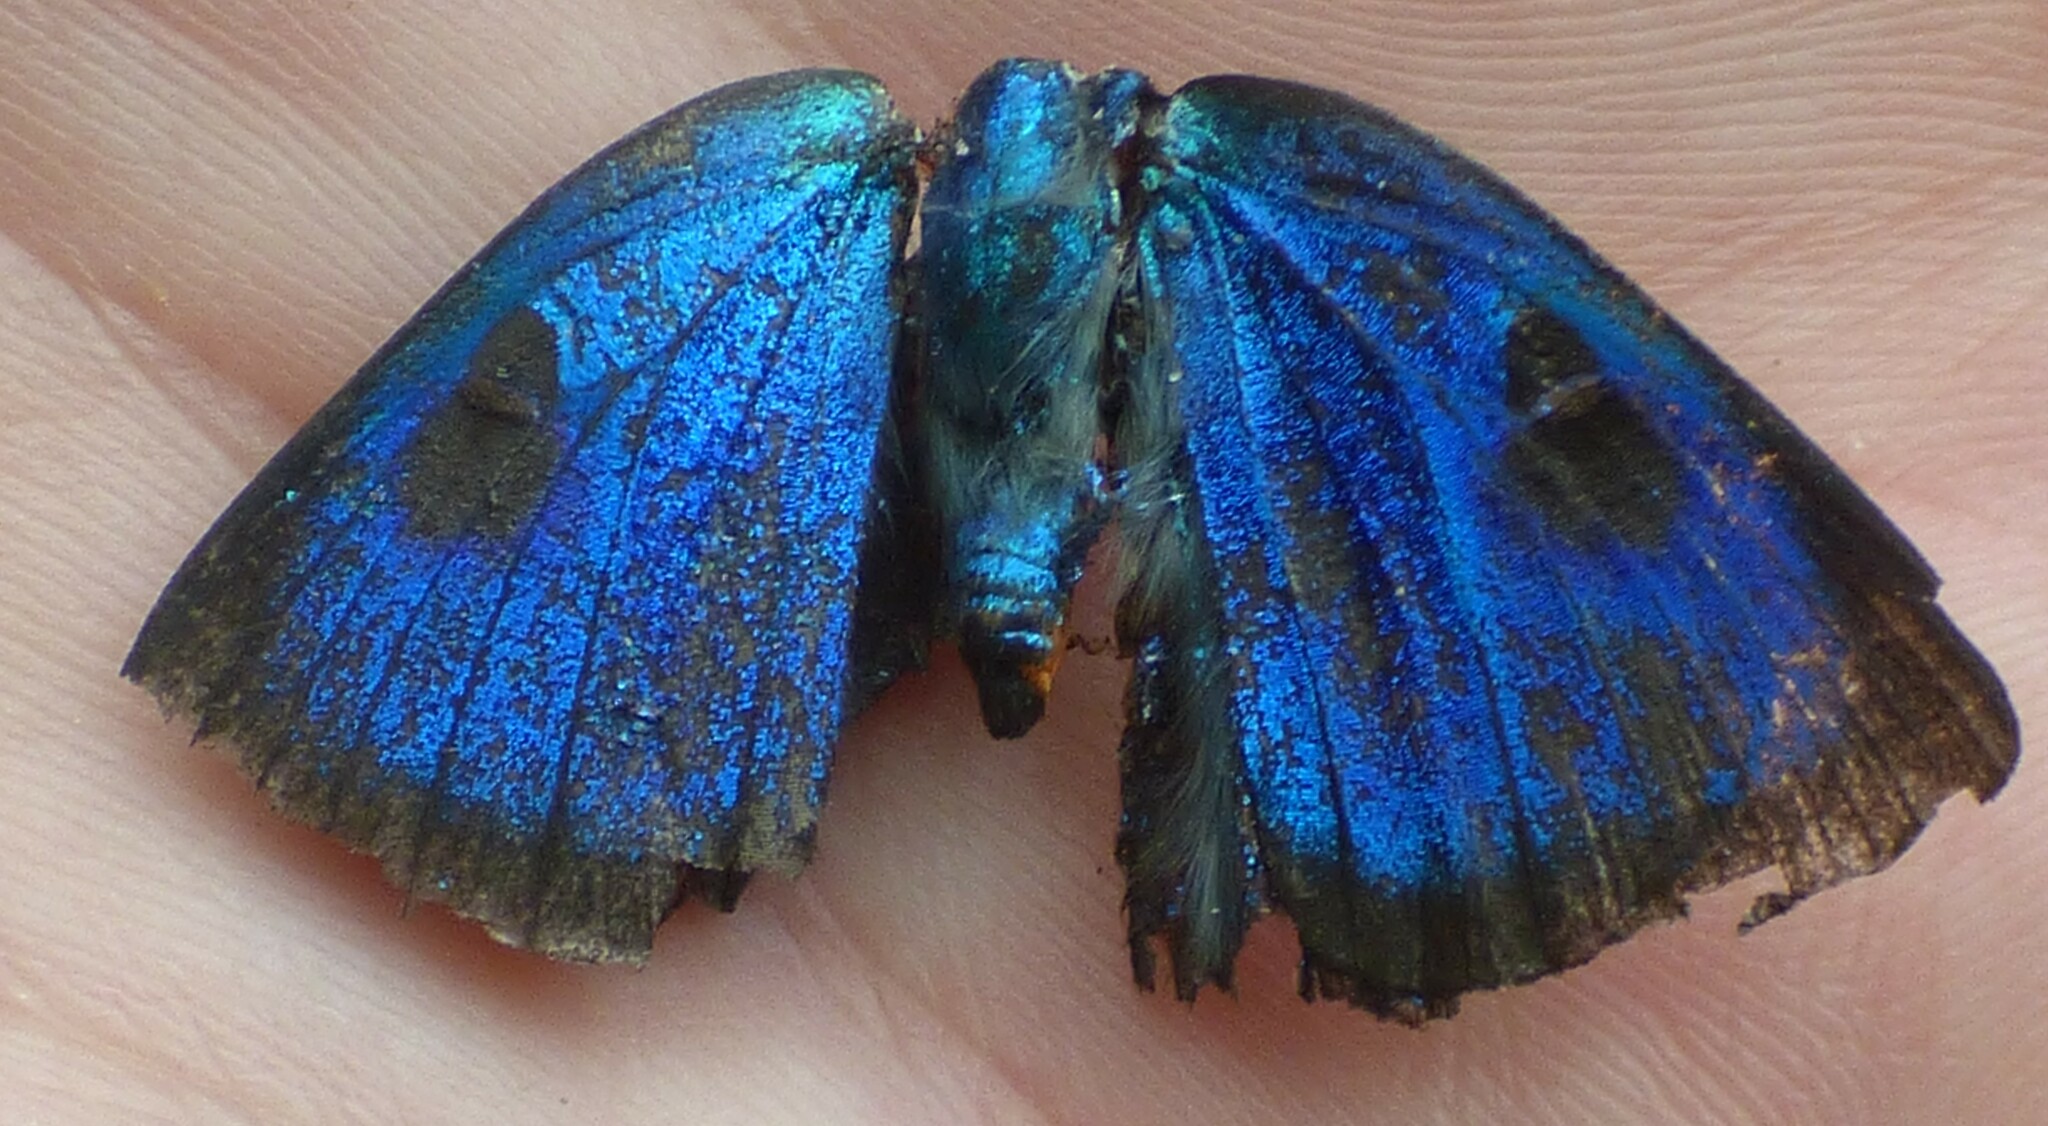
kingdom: Animalia
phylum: Arthropoda
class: Insecta
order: Lepidoptera
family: Lycaenidae
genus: Atlides
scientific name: Atlides halesus
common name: Great purple hairstreak
